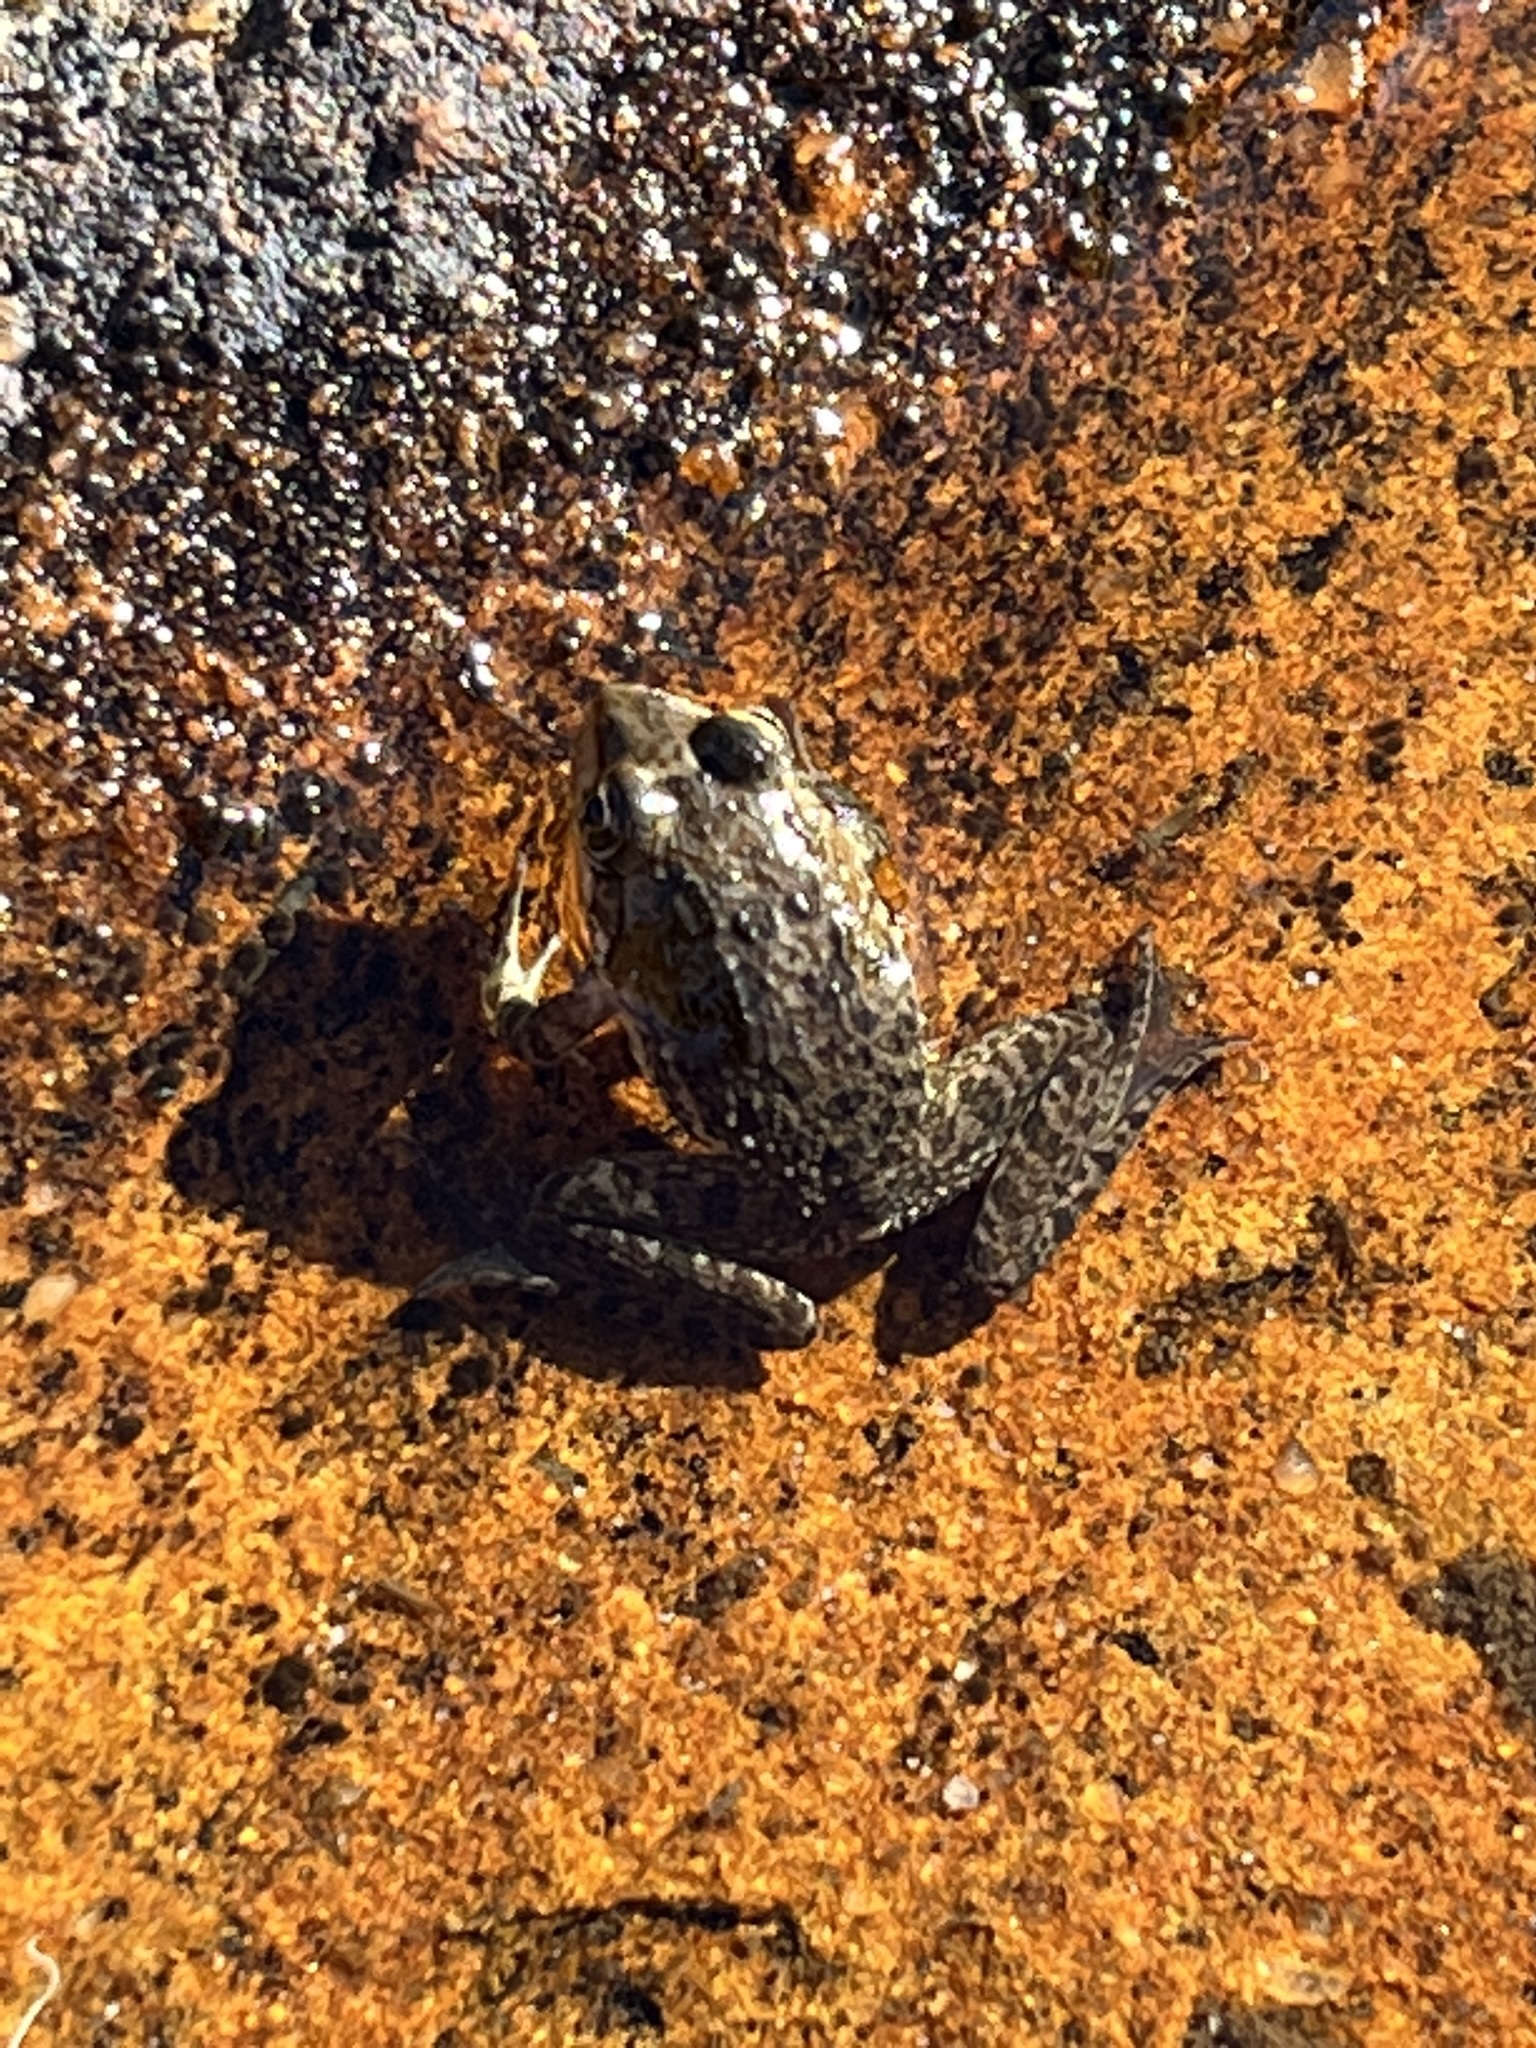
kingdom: Animalia
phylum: Chordata
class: Amphibia
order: Anura
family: Pyxicephalidae
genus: Amietia
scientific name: Amietia fuscigula
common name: Cape rana
